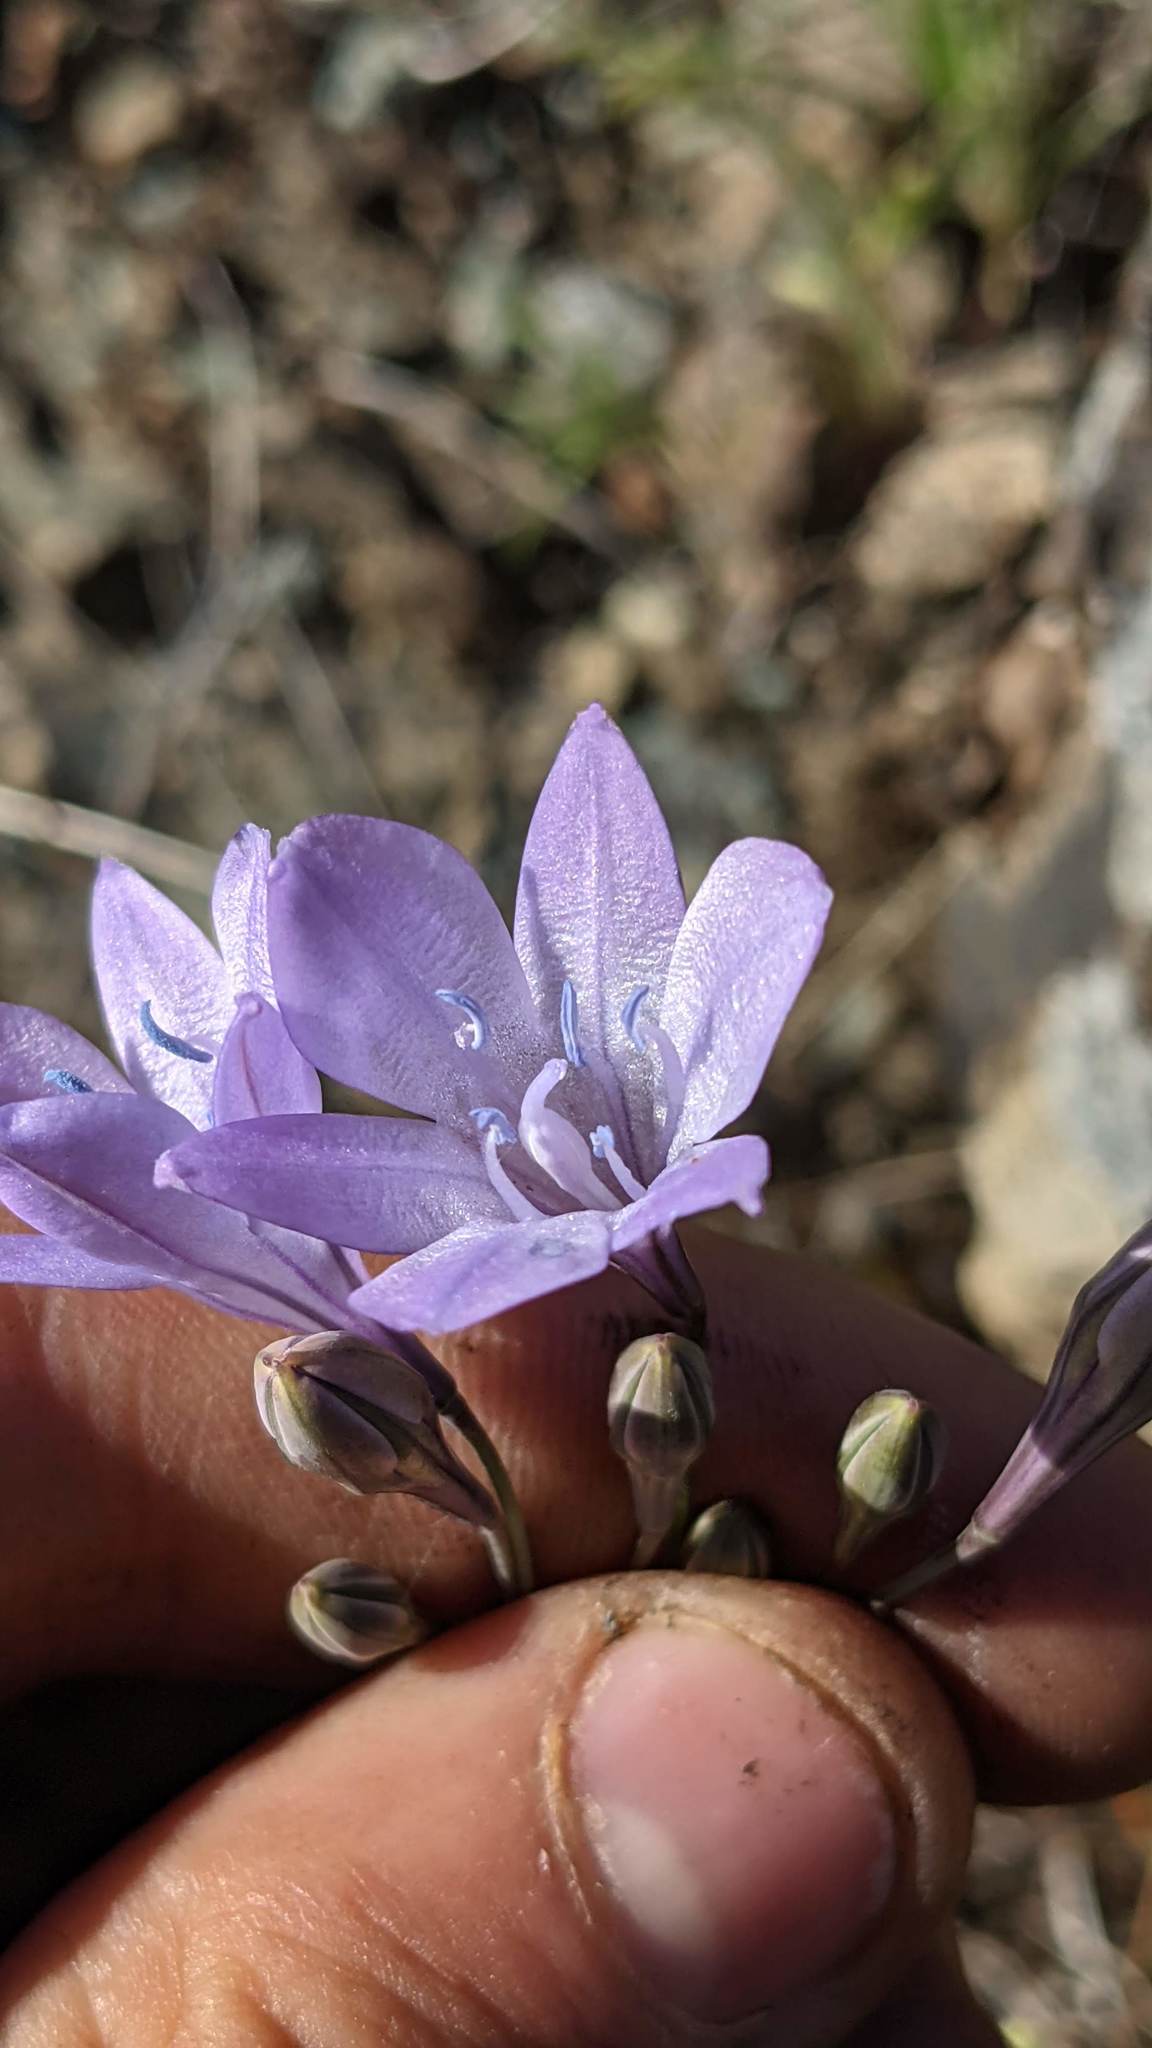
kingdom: Plantae
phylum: Tracheophyta
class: Liliopsida
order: Asparagales
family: Asparagaceae
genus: Triteleia
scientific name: Triteleia laxa
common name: Triplet-lily
